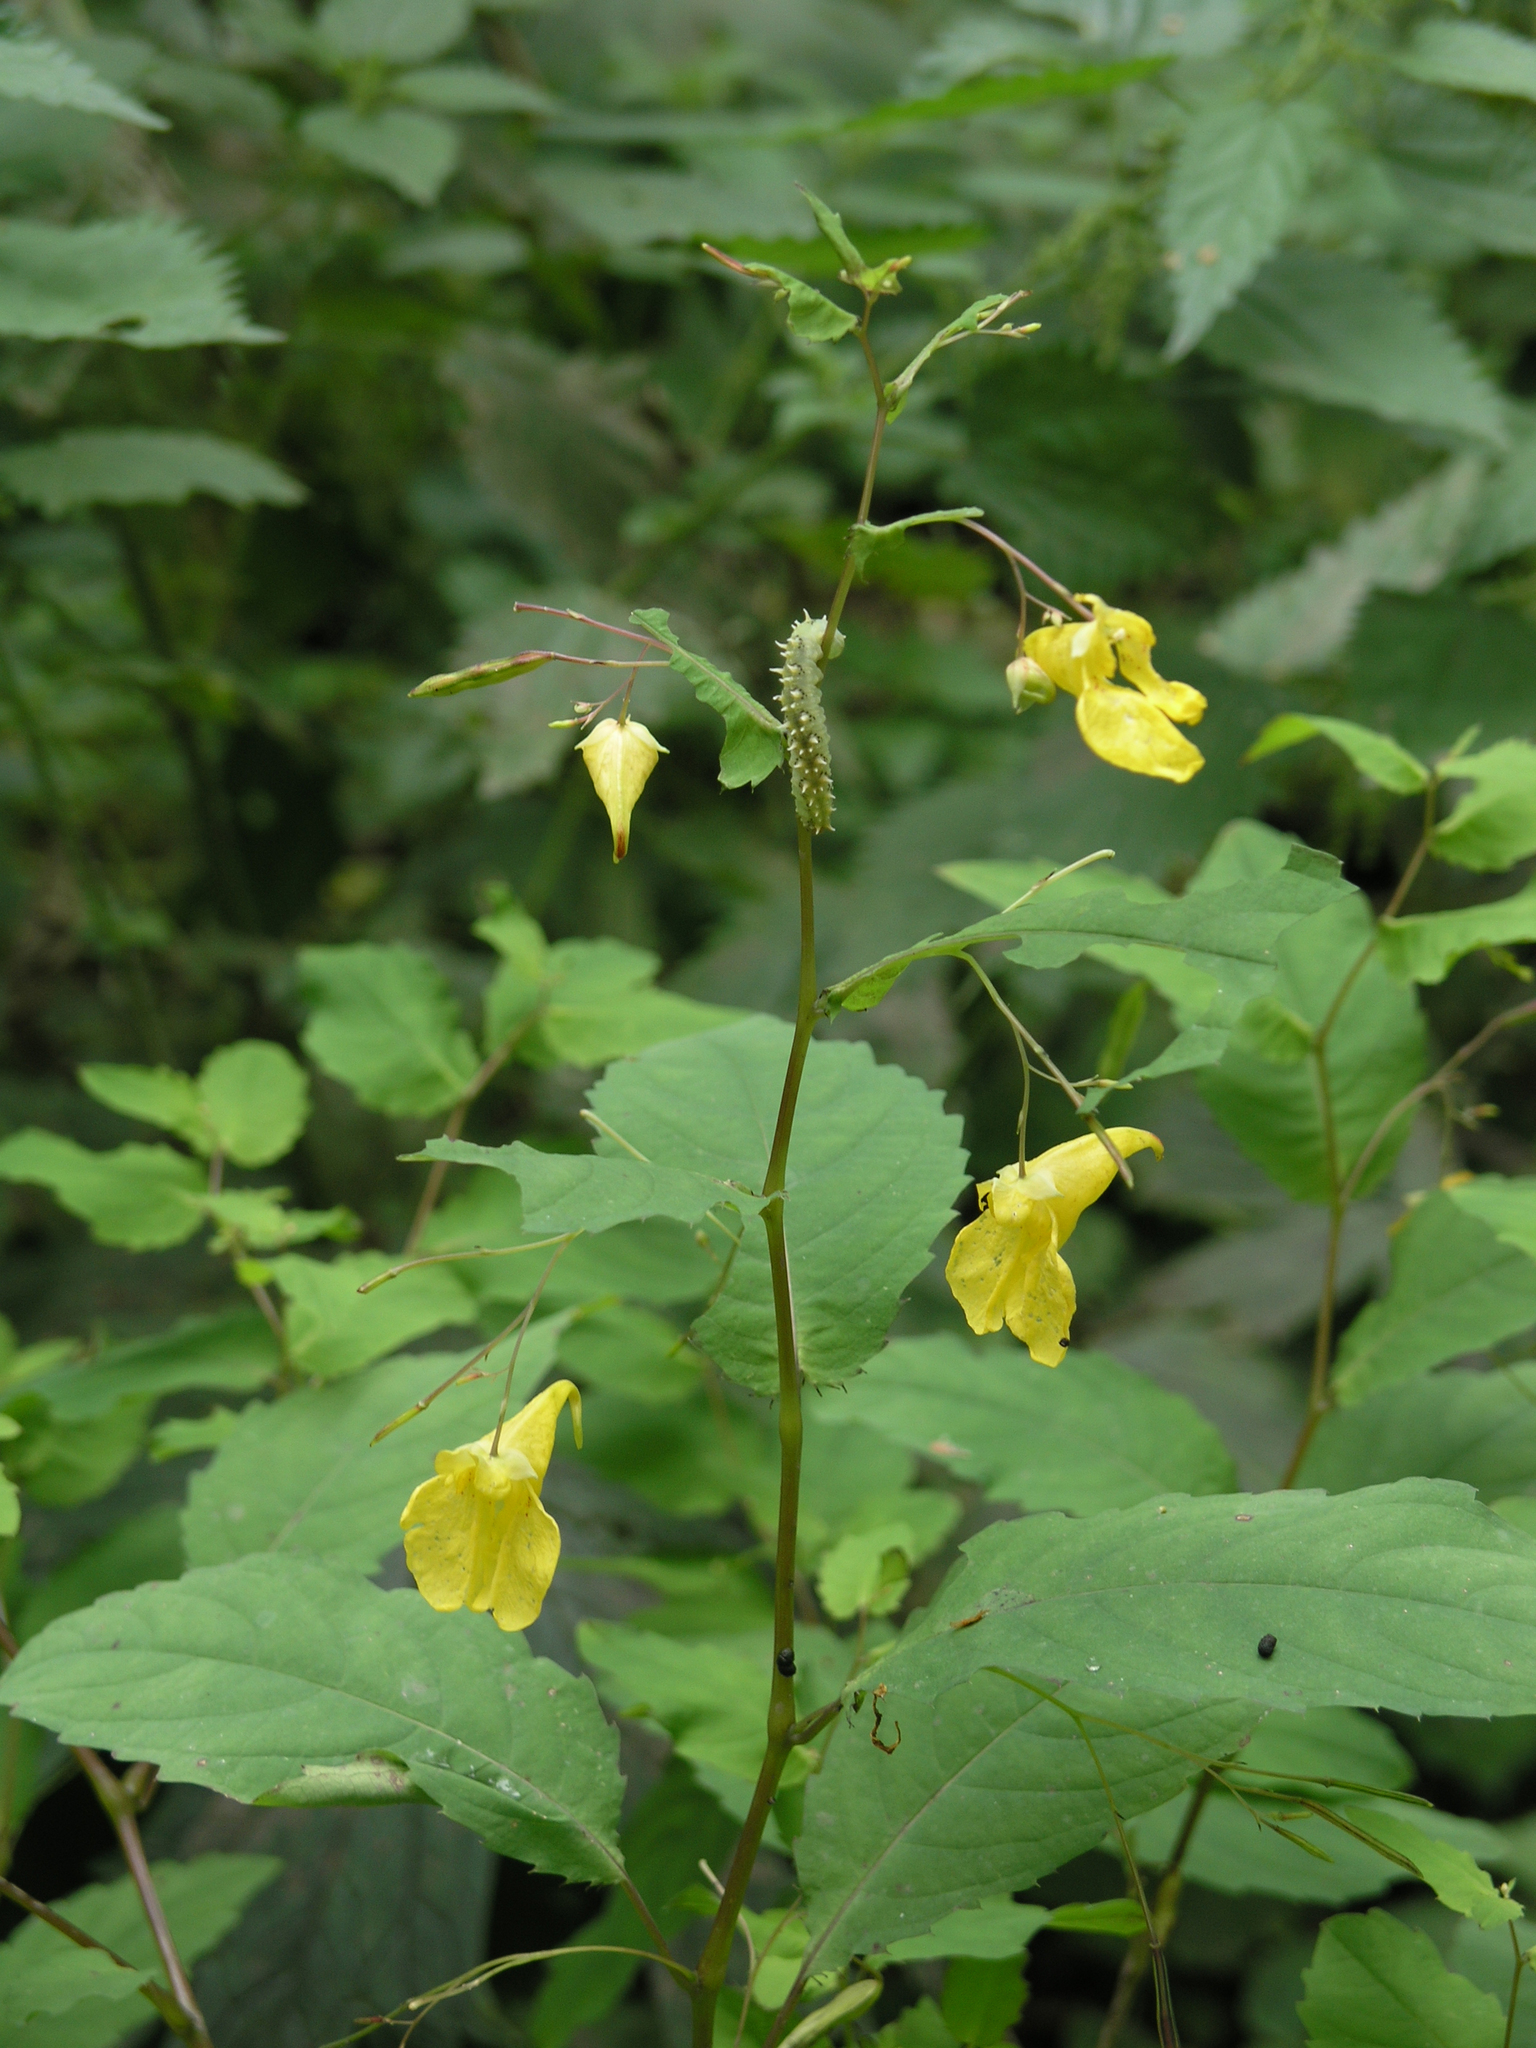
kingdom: Animalia
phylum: Arthropoda
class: Insecta
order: Hymenoptera
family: Tenthredinidae
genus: Siobla
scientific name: Siobla sturmii
